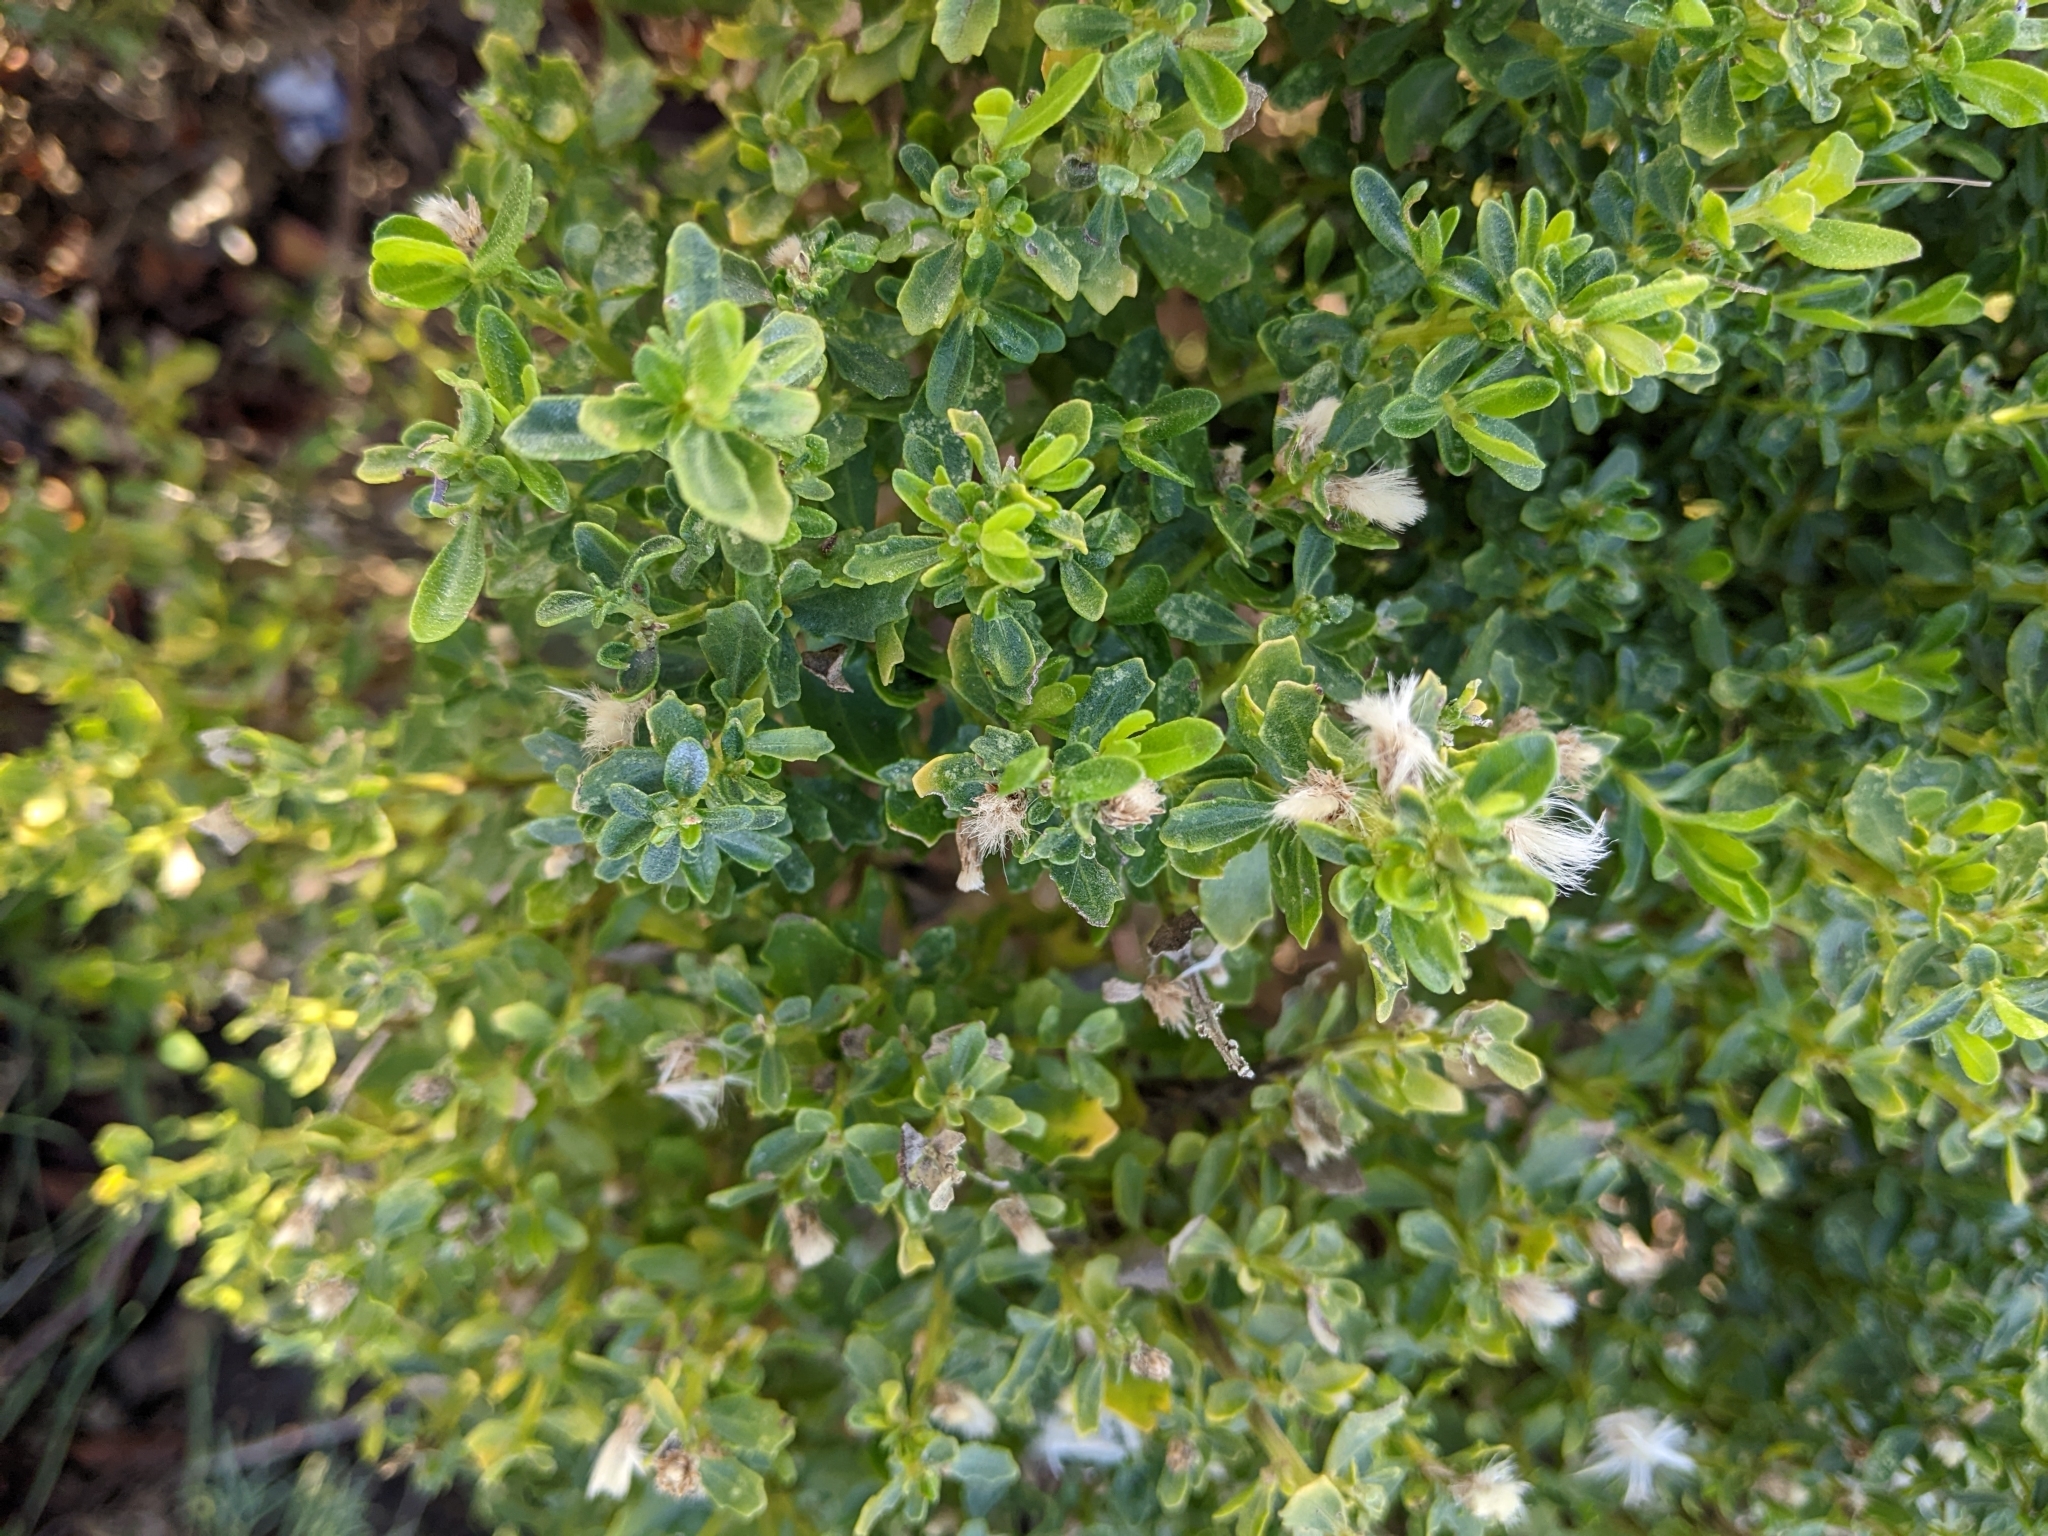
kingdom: Plantae
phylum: Tracheophyta
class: Magnoliopsida
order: Asterales
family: Asteraceae
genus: Baccharis
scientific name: Baccharis pilularis
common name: Coyotebrush
